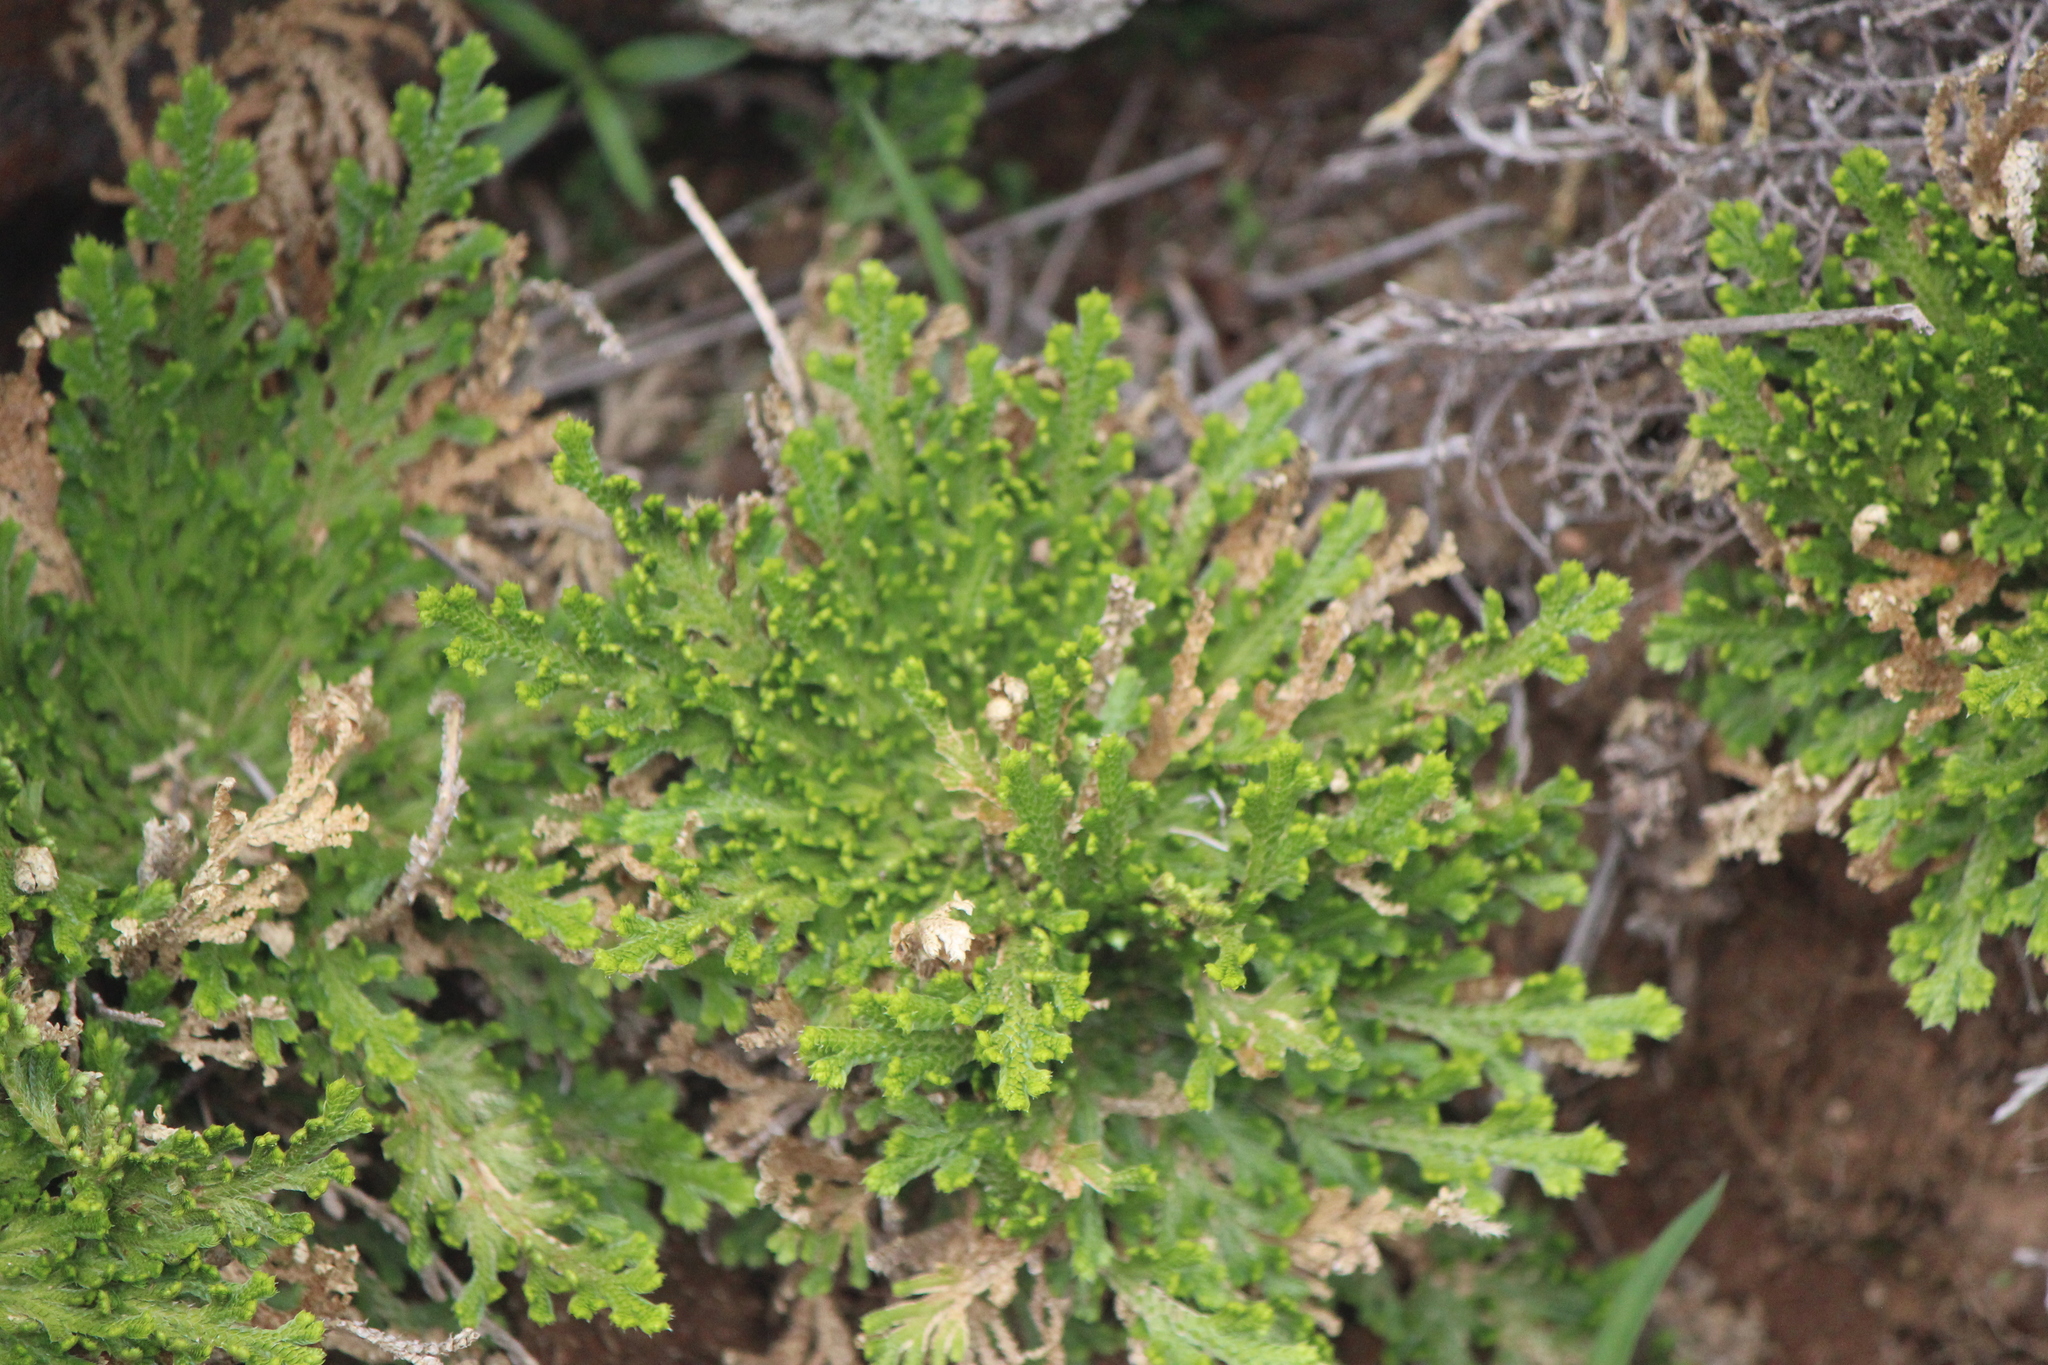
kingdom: Plantae
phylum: Tracheophyta
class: Lycopodiopsida
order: Selaginellales
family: Selaginellaceae
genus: Selaginella
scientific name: Selaginella pallescens
